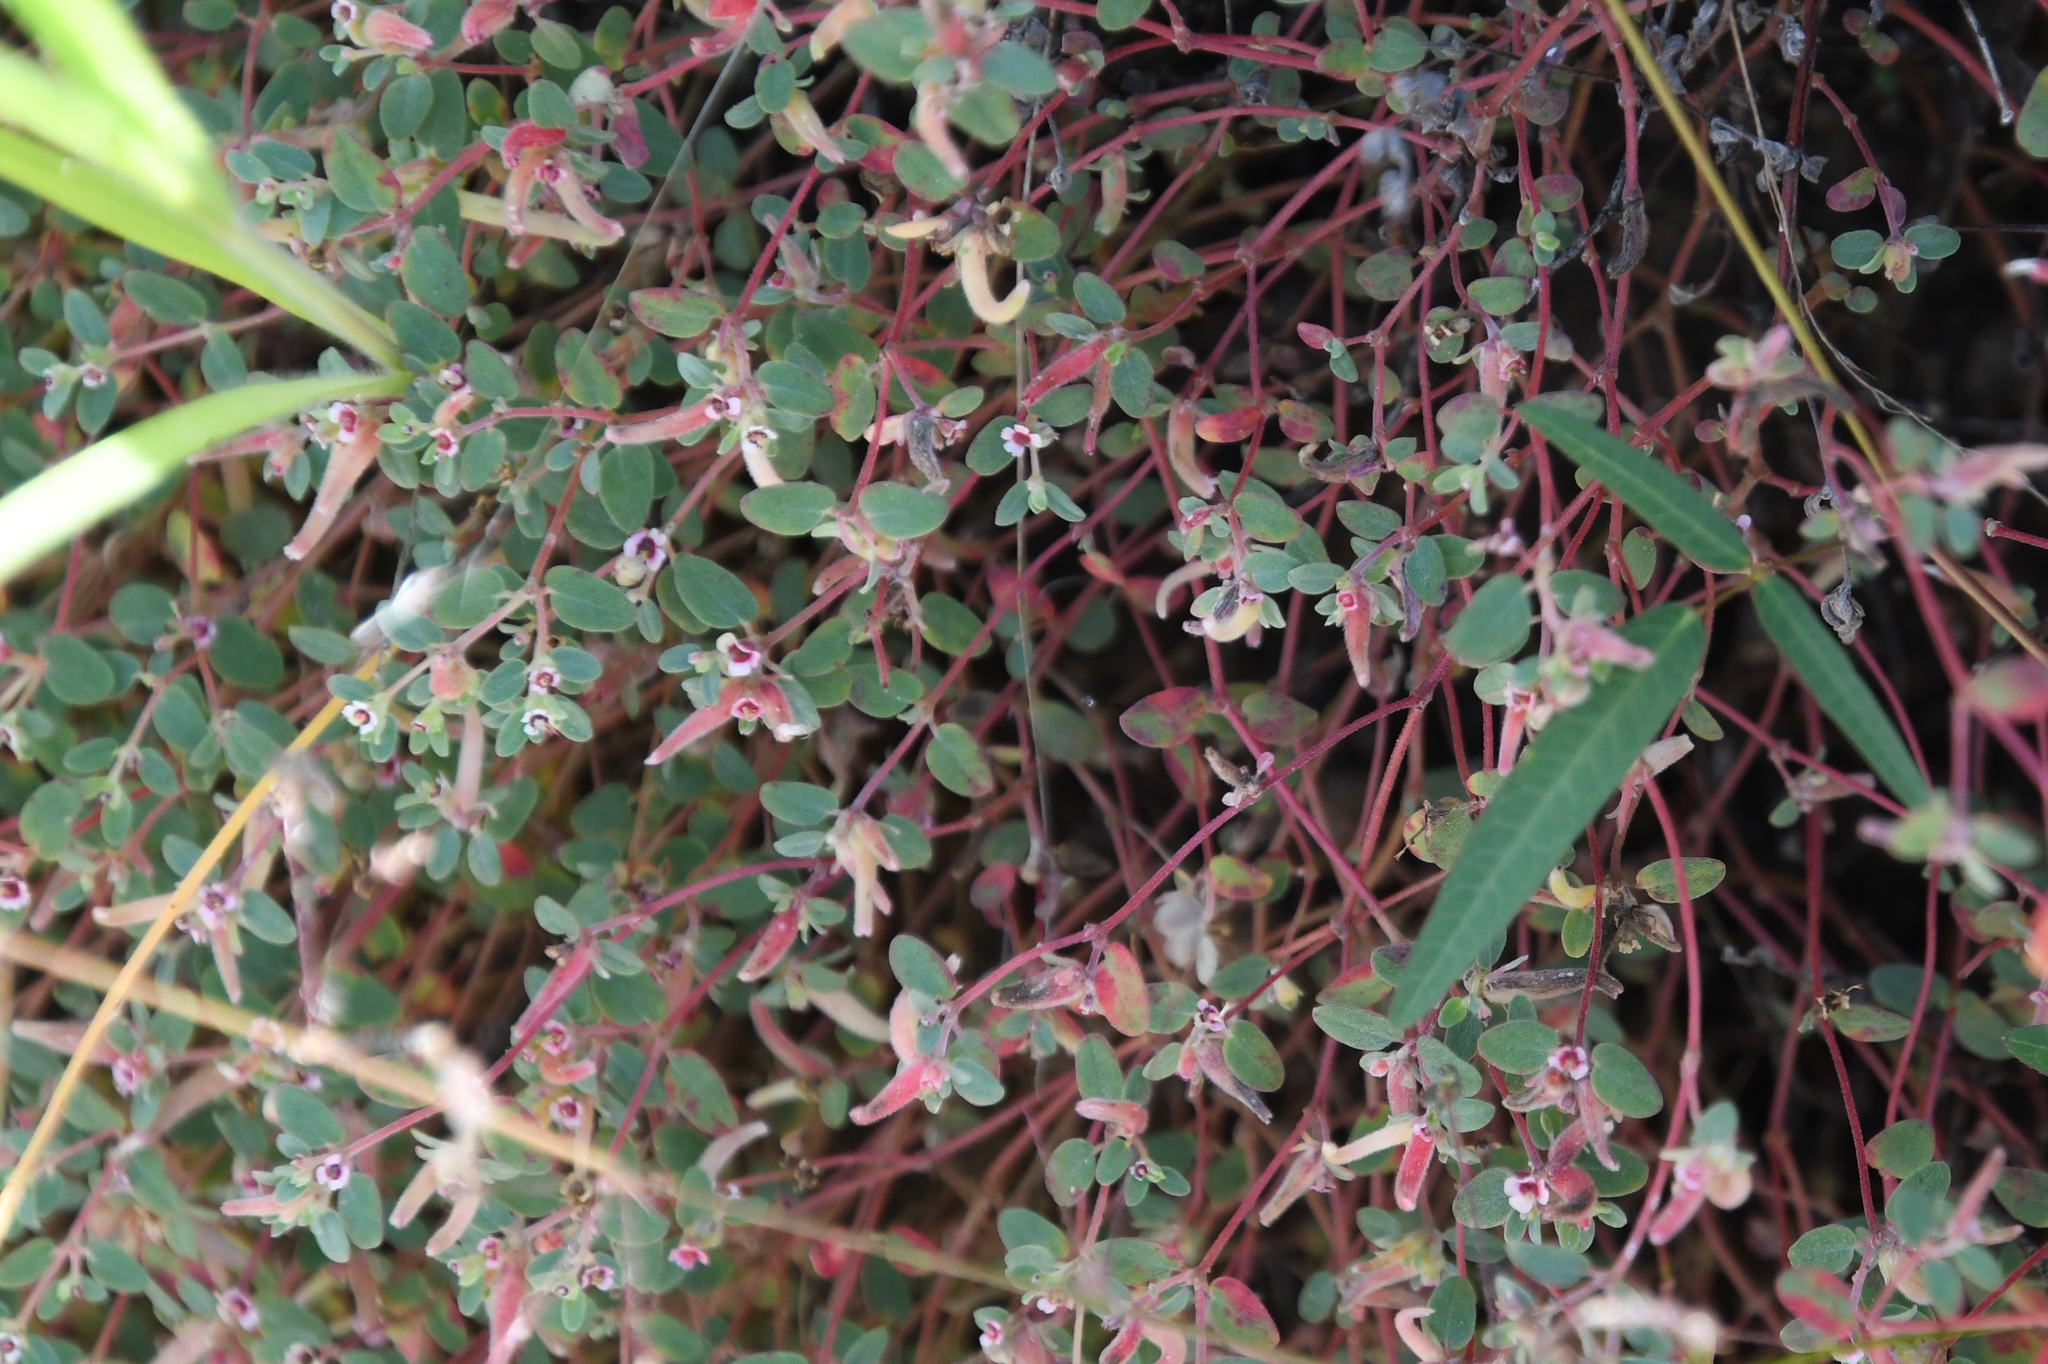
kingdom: Plantae
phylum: Tracheophyta
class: Magnoliopsida
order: Malpighiales
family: Euphorbiaceae
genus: Euphorbia
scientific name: Euphorbia melanadenia
